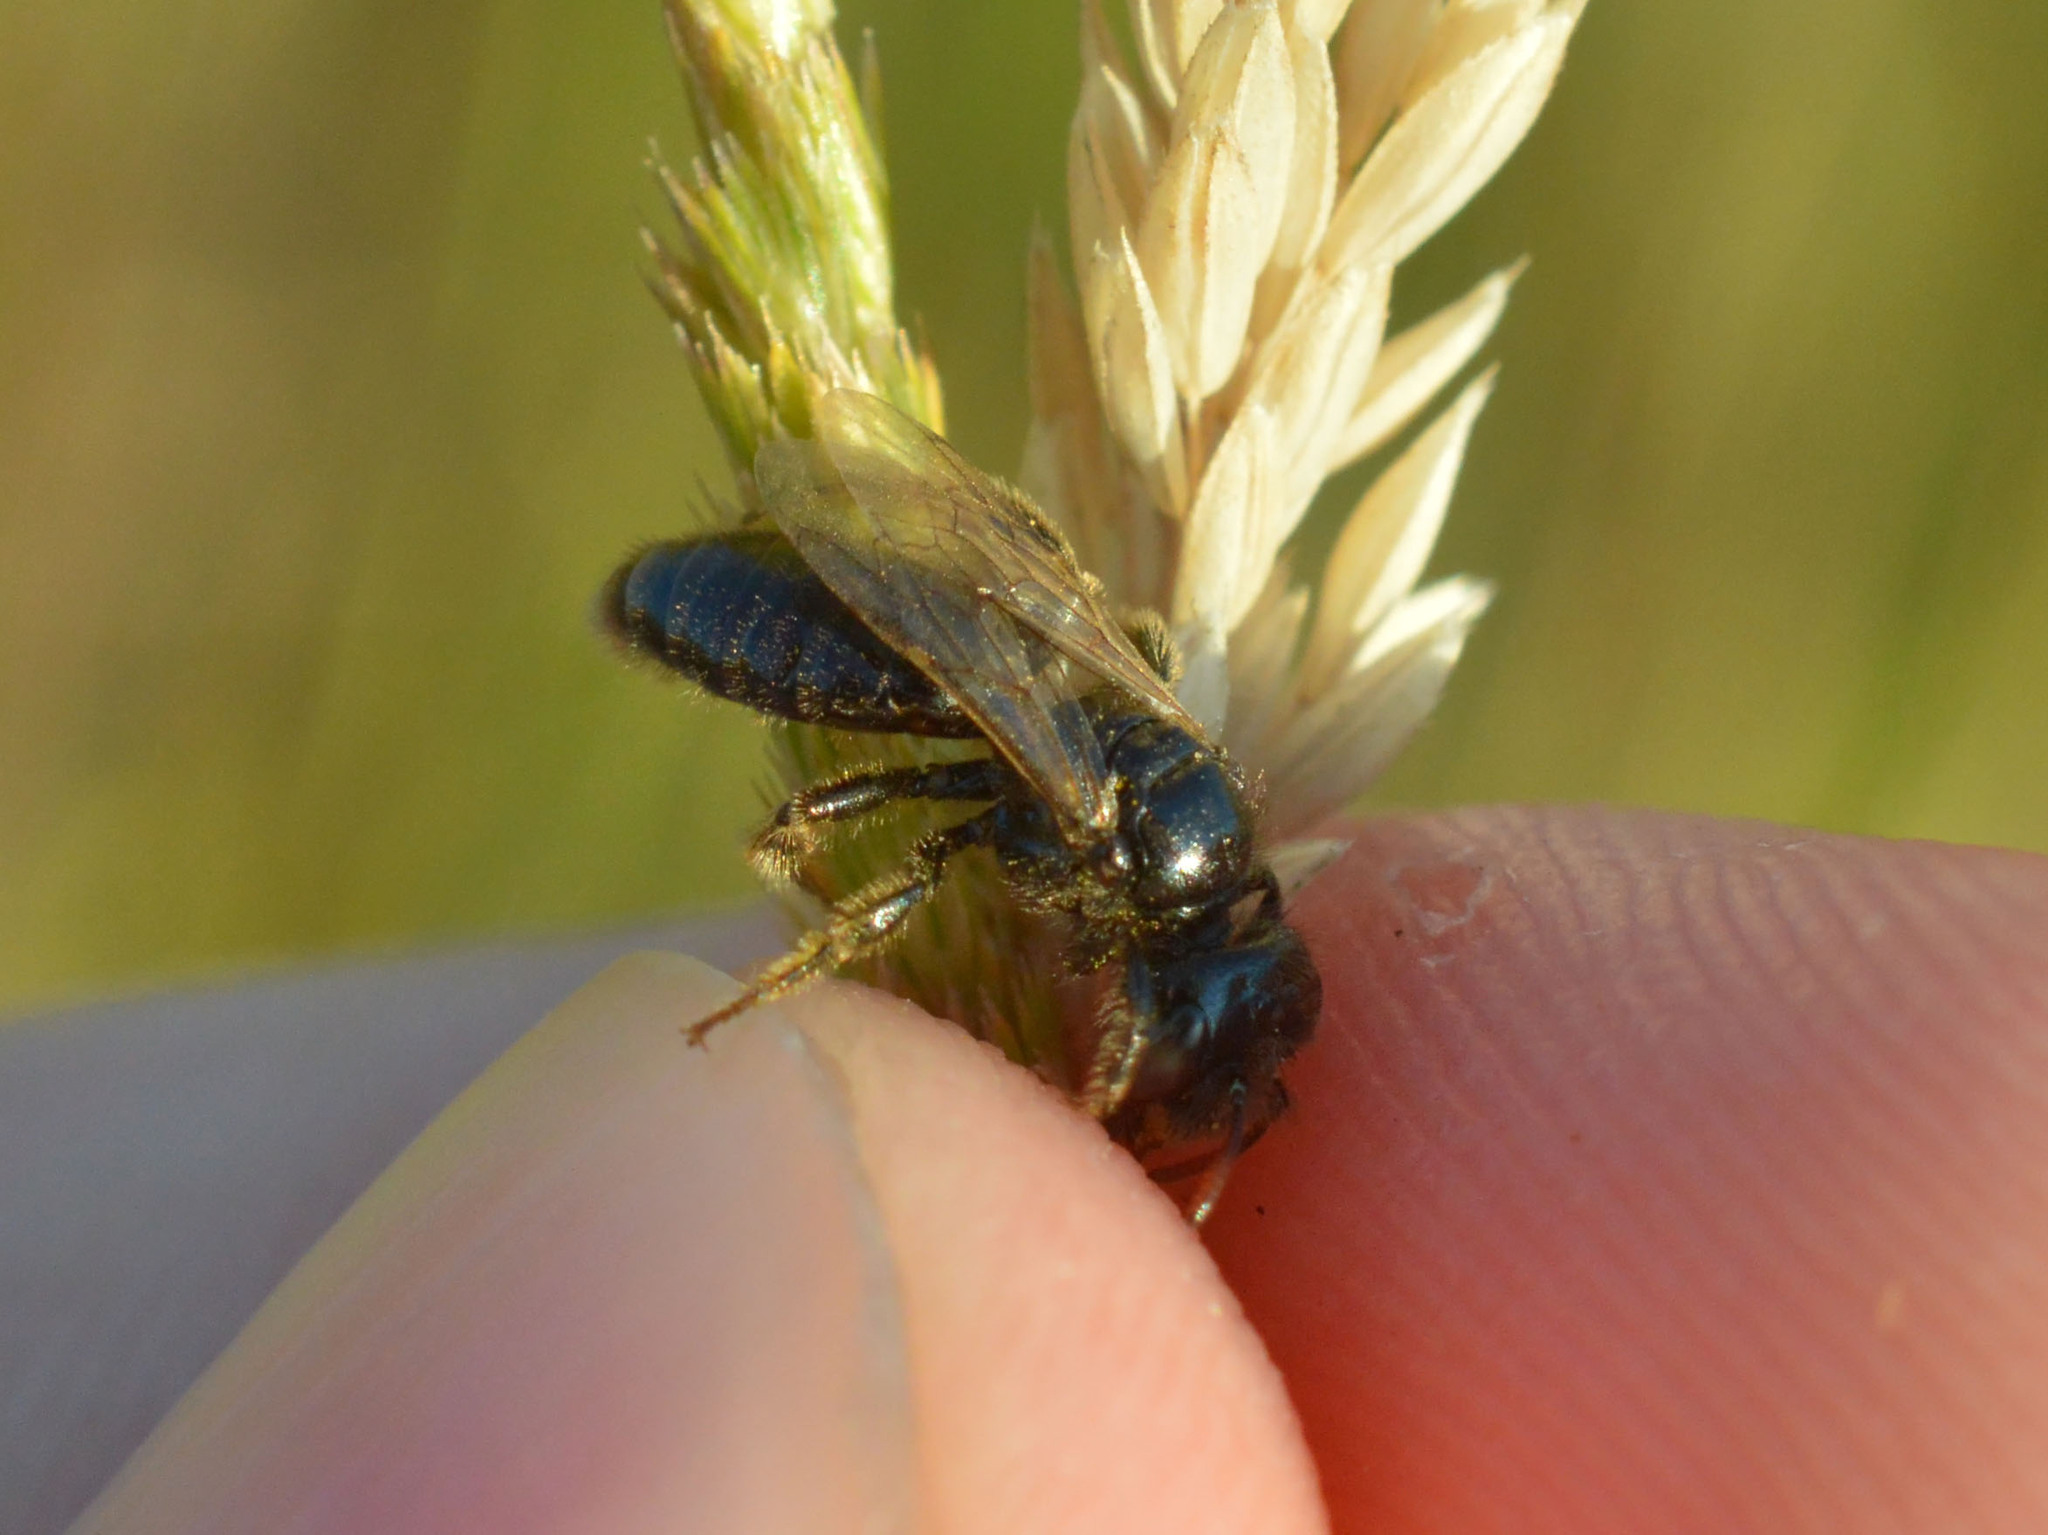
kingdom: Animalia
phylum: Arthropoda
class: Insecta
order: Hymenoptera
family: Andrenidae
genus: Panurgus
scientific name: Panurgus calcaratus
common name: Small shaggy bee
